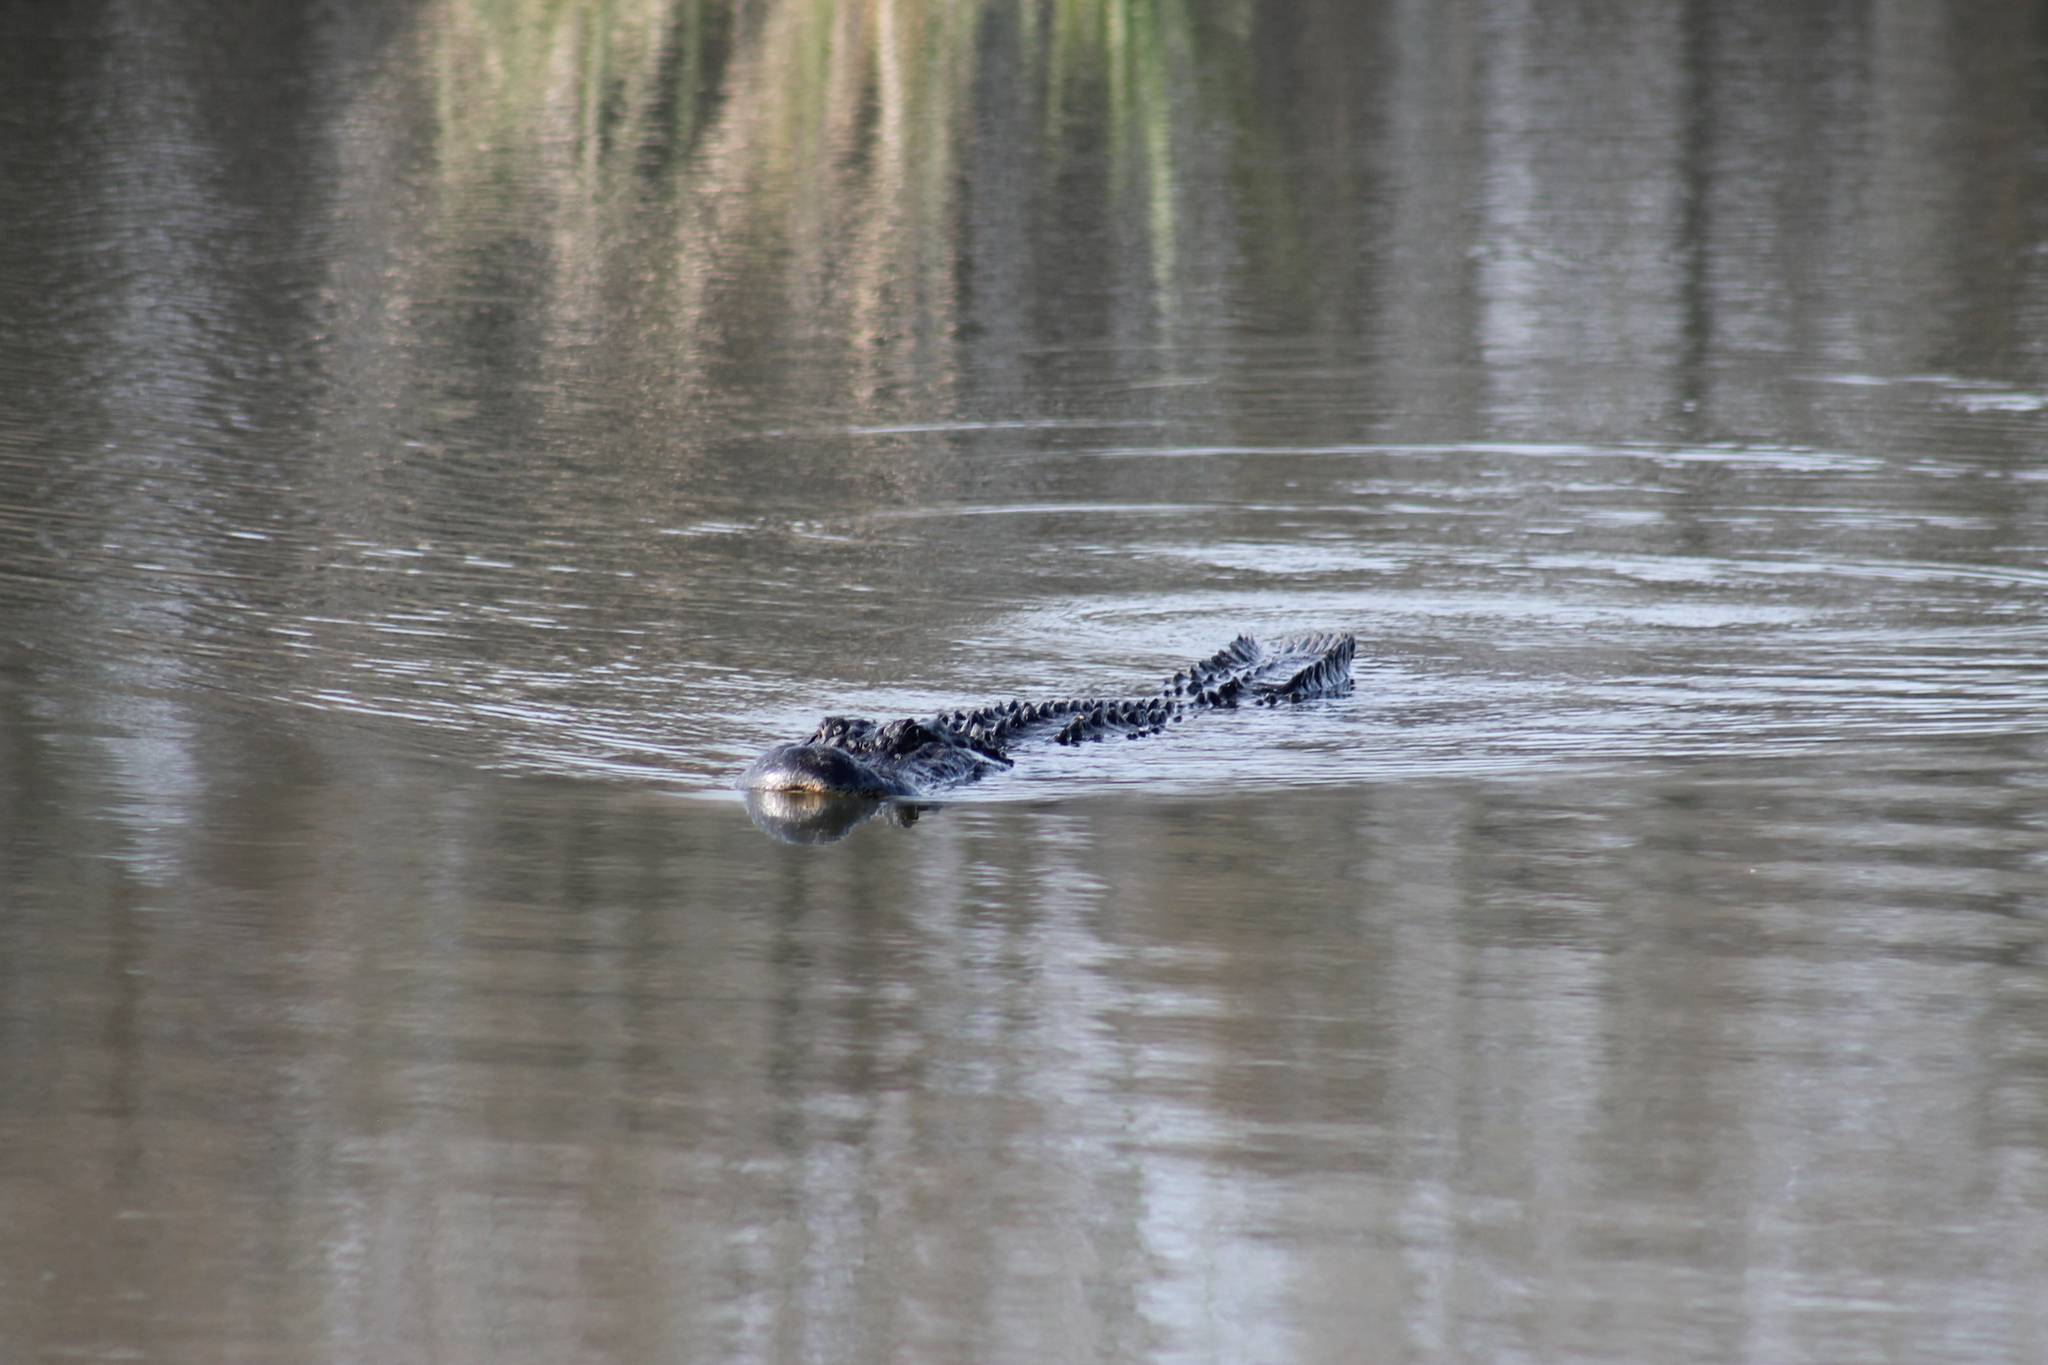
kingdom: Animalia
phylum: Chordata
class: Crocodylia
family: Alligatoridae
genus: Alligator
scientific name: Alligator mississippiensis
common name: American alligator
